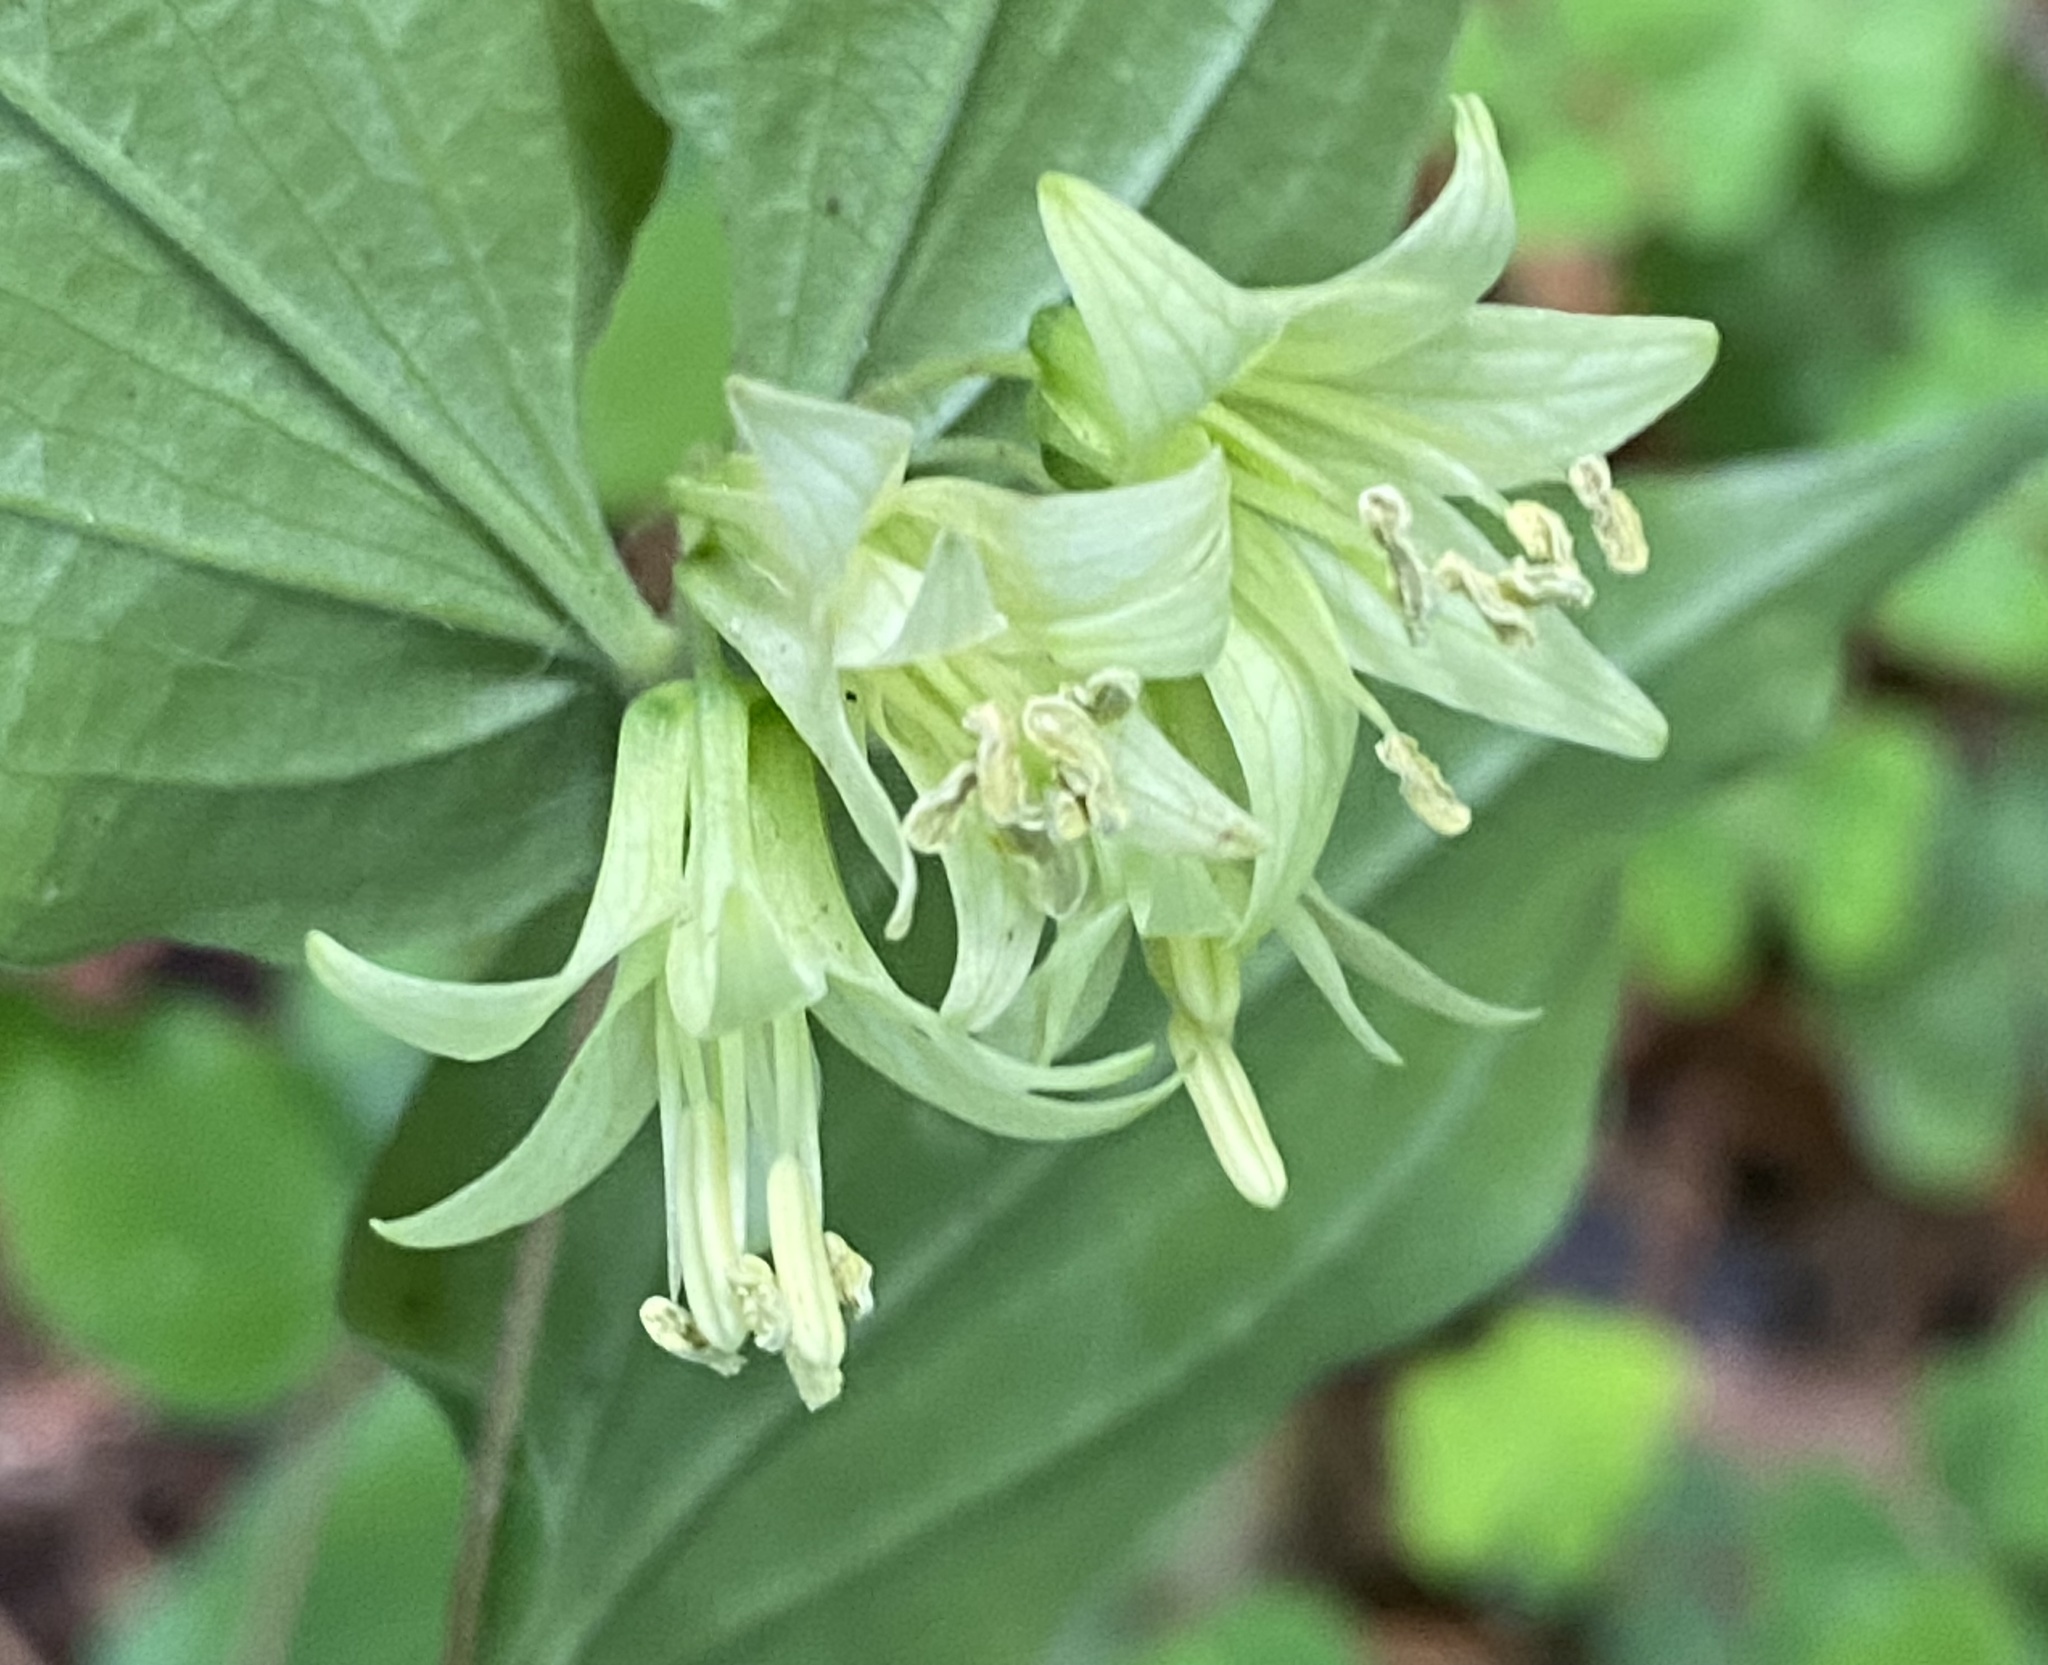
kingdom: Plantae
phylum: Tracheophyta
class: Liliopsida
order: Liliales
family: Liliaceae
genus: Prosartes
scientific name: Prosartes hookeri
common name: Fairy-bells
